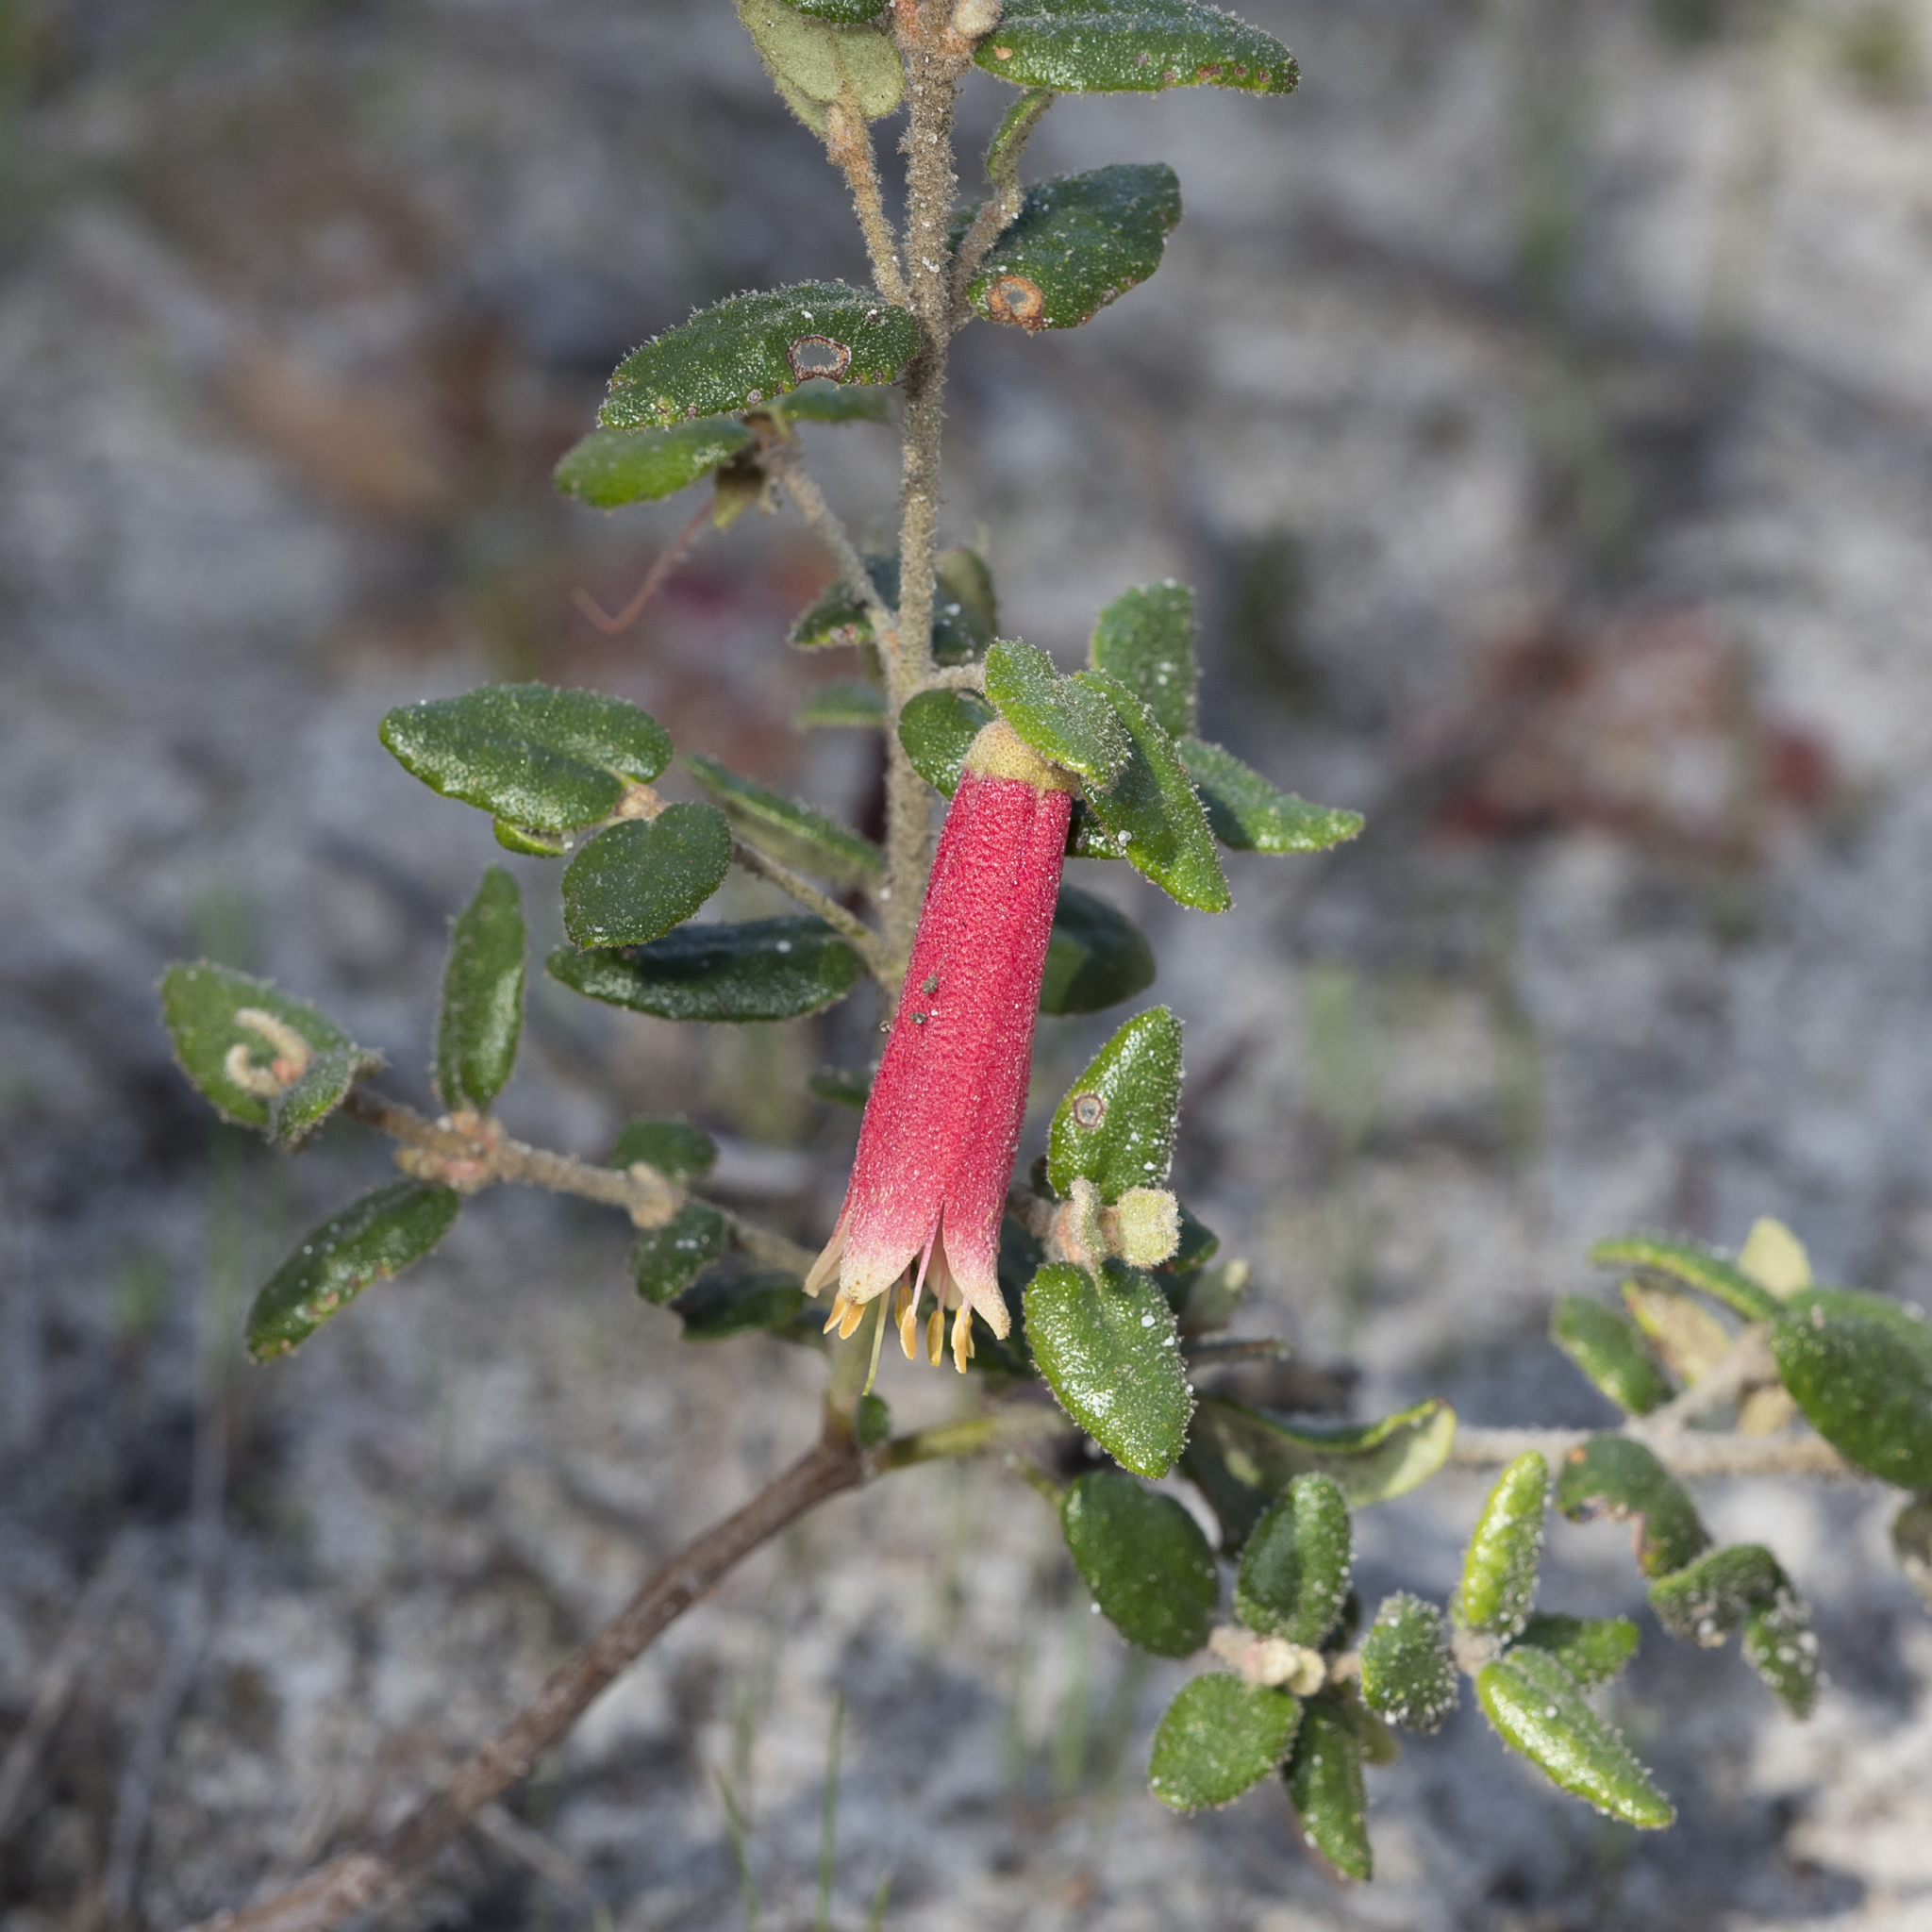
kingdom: Plantae
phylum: Tracheophyta
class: Magnoliopsida
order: Sapindales
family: Rutaceae
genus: Correa
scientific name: Correa reflexa
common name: Common correa
